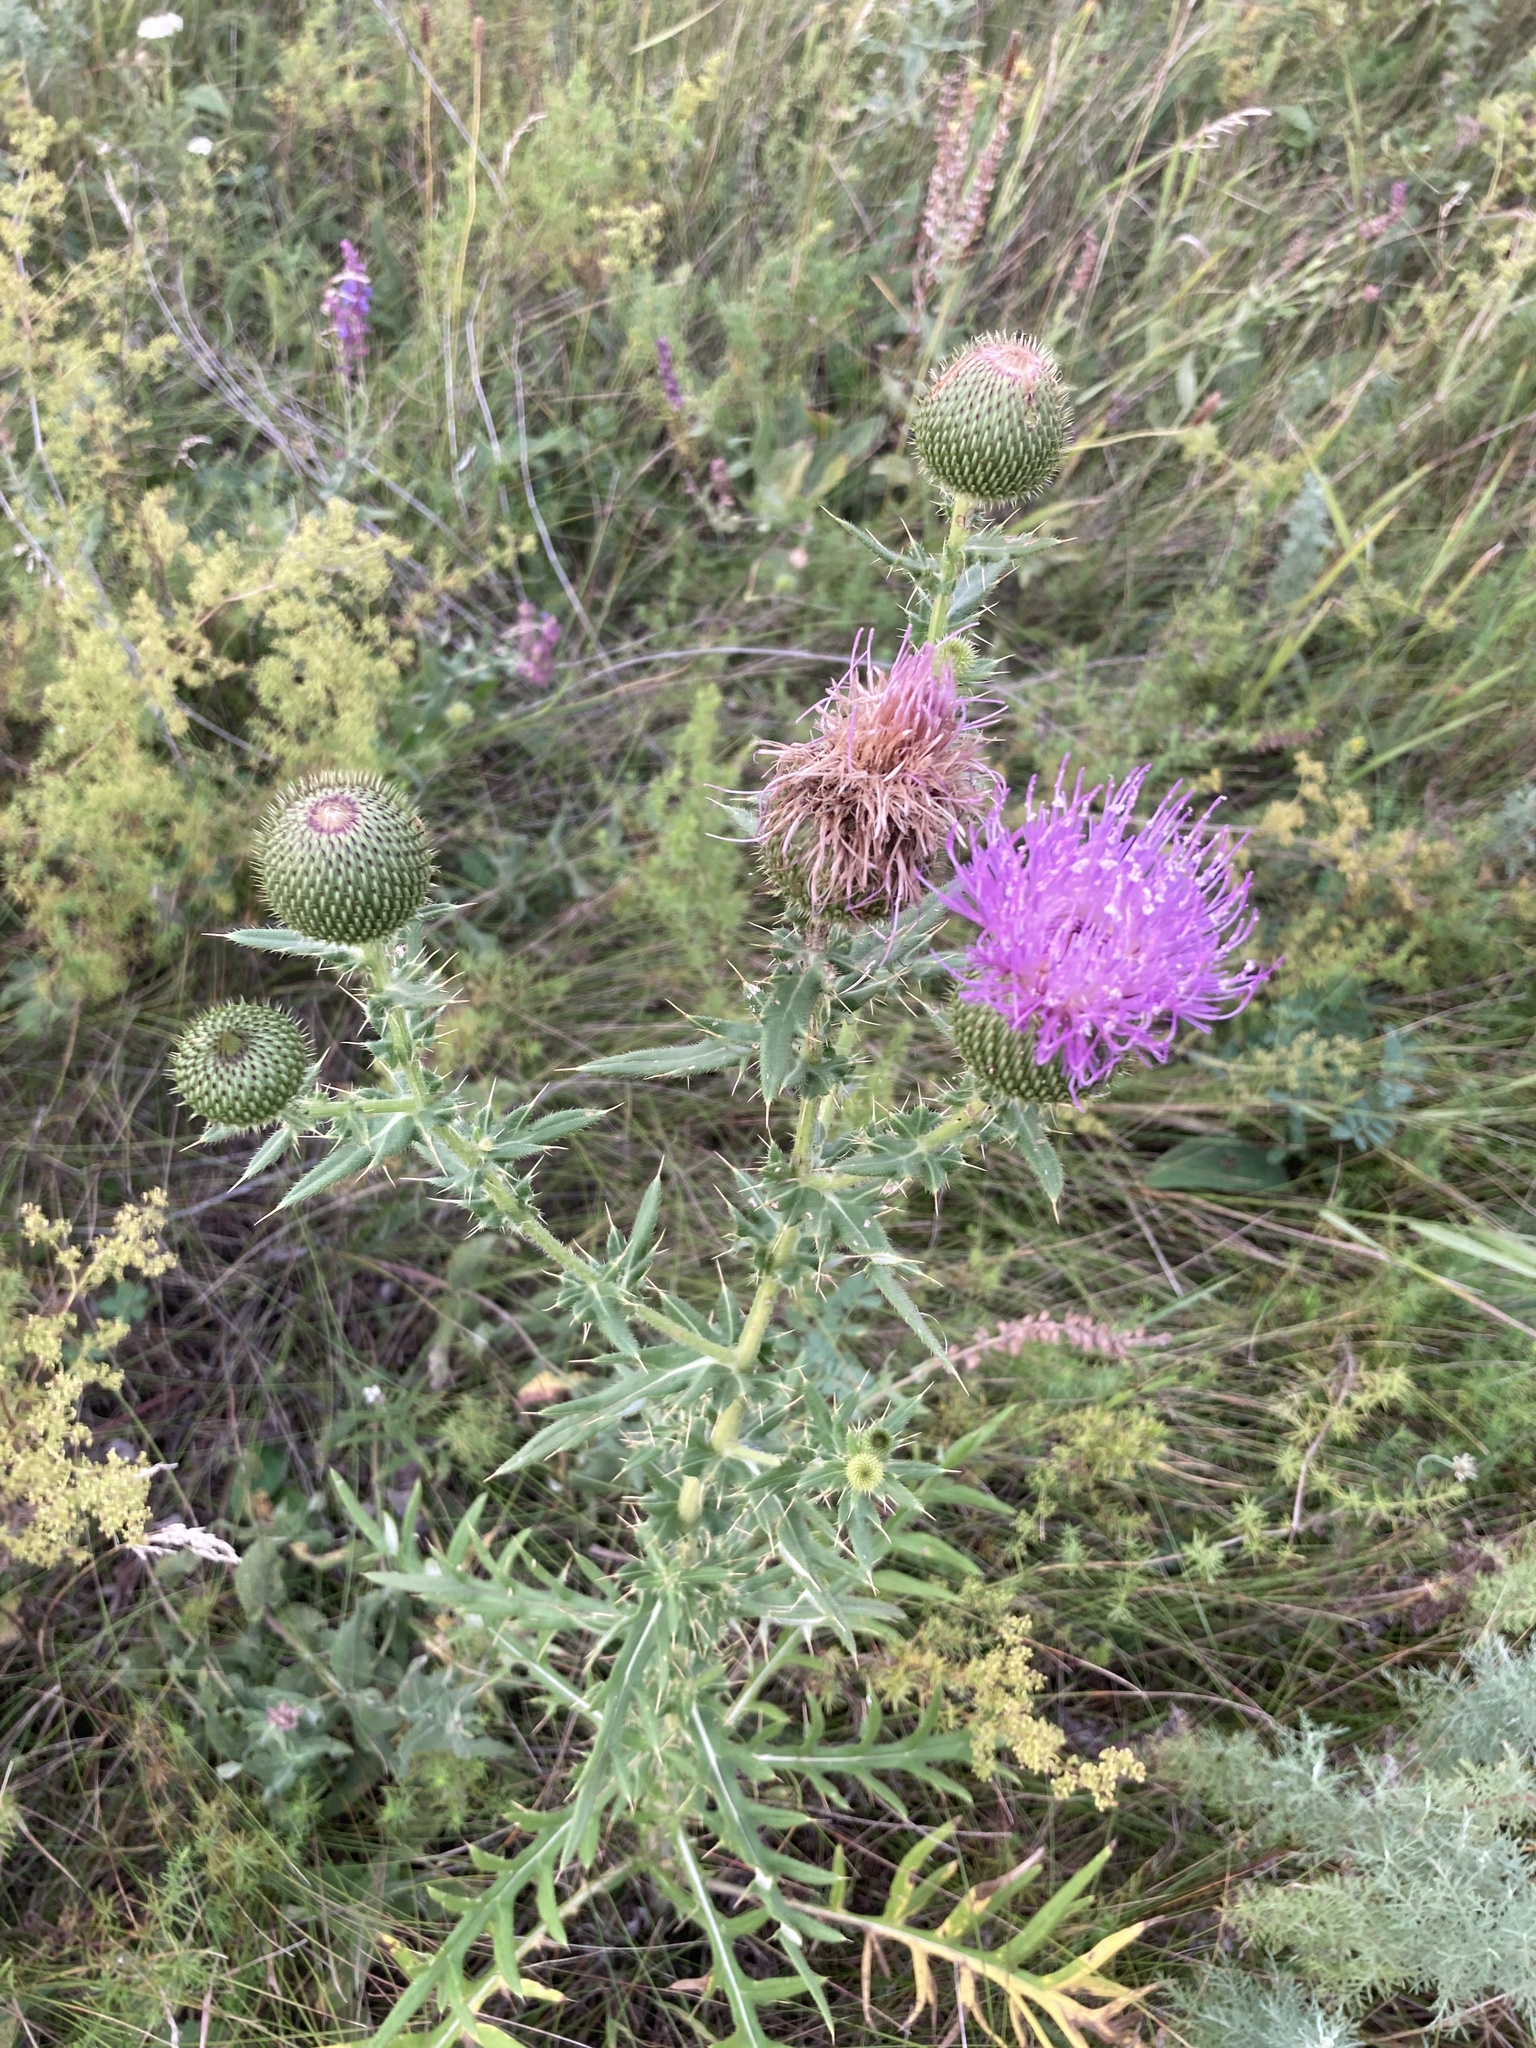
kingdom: Plantae
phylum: Tracheophyta
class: Magnoliopsida
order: Asterales
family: Asteraceae
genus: Cirsium
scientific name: Cirsium serrulatum
